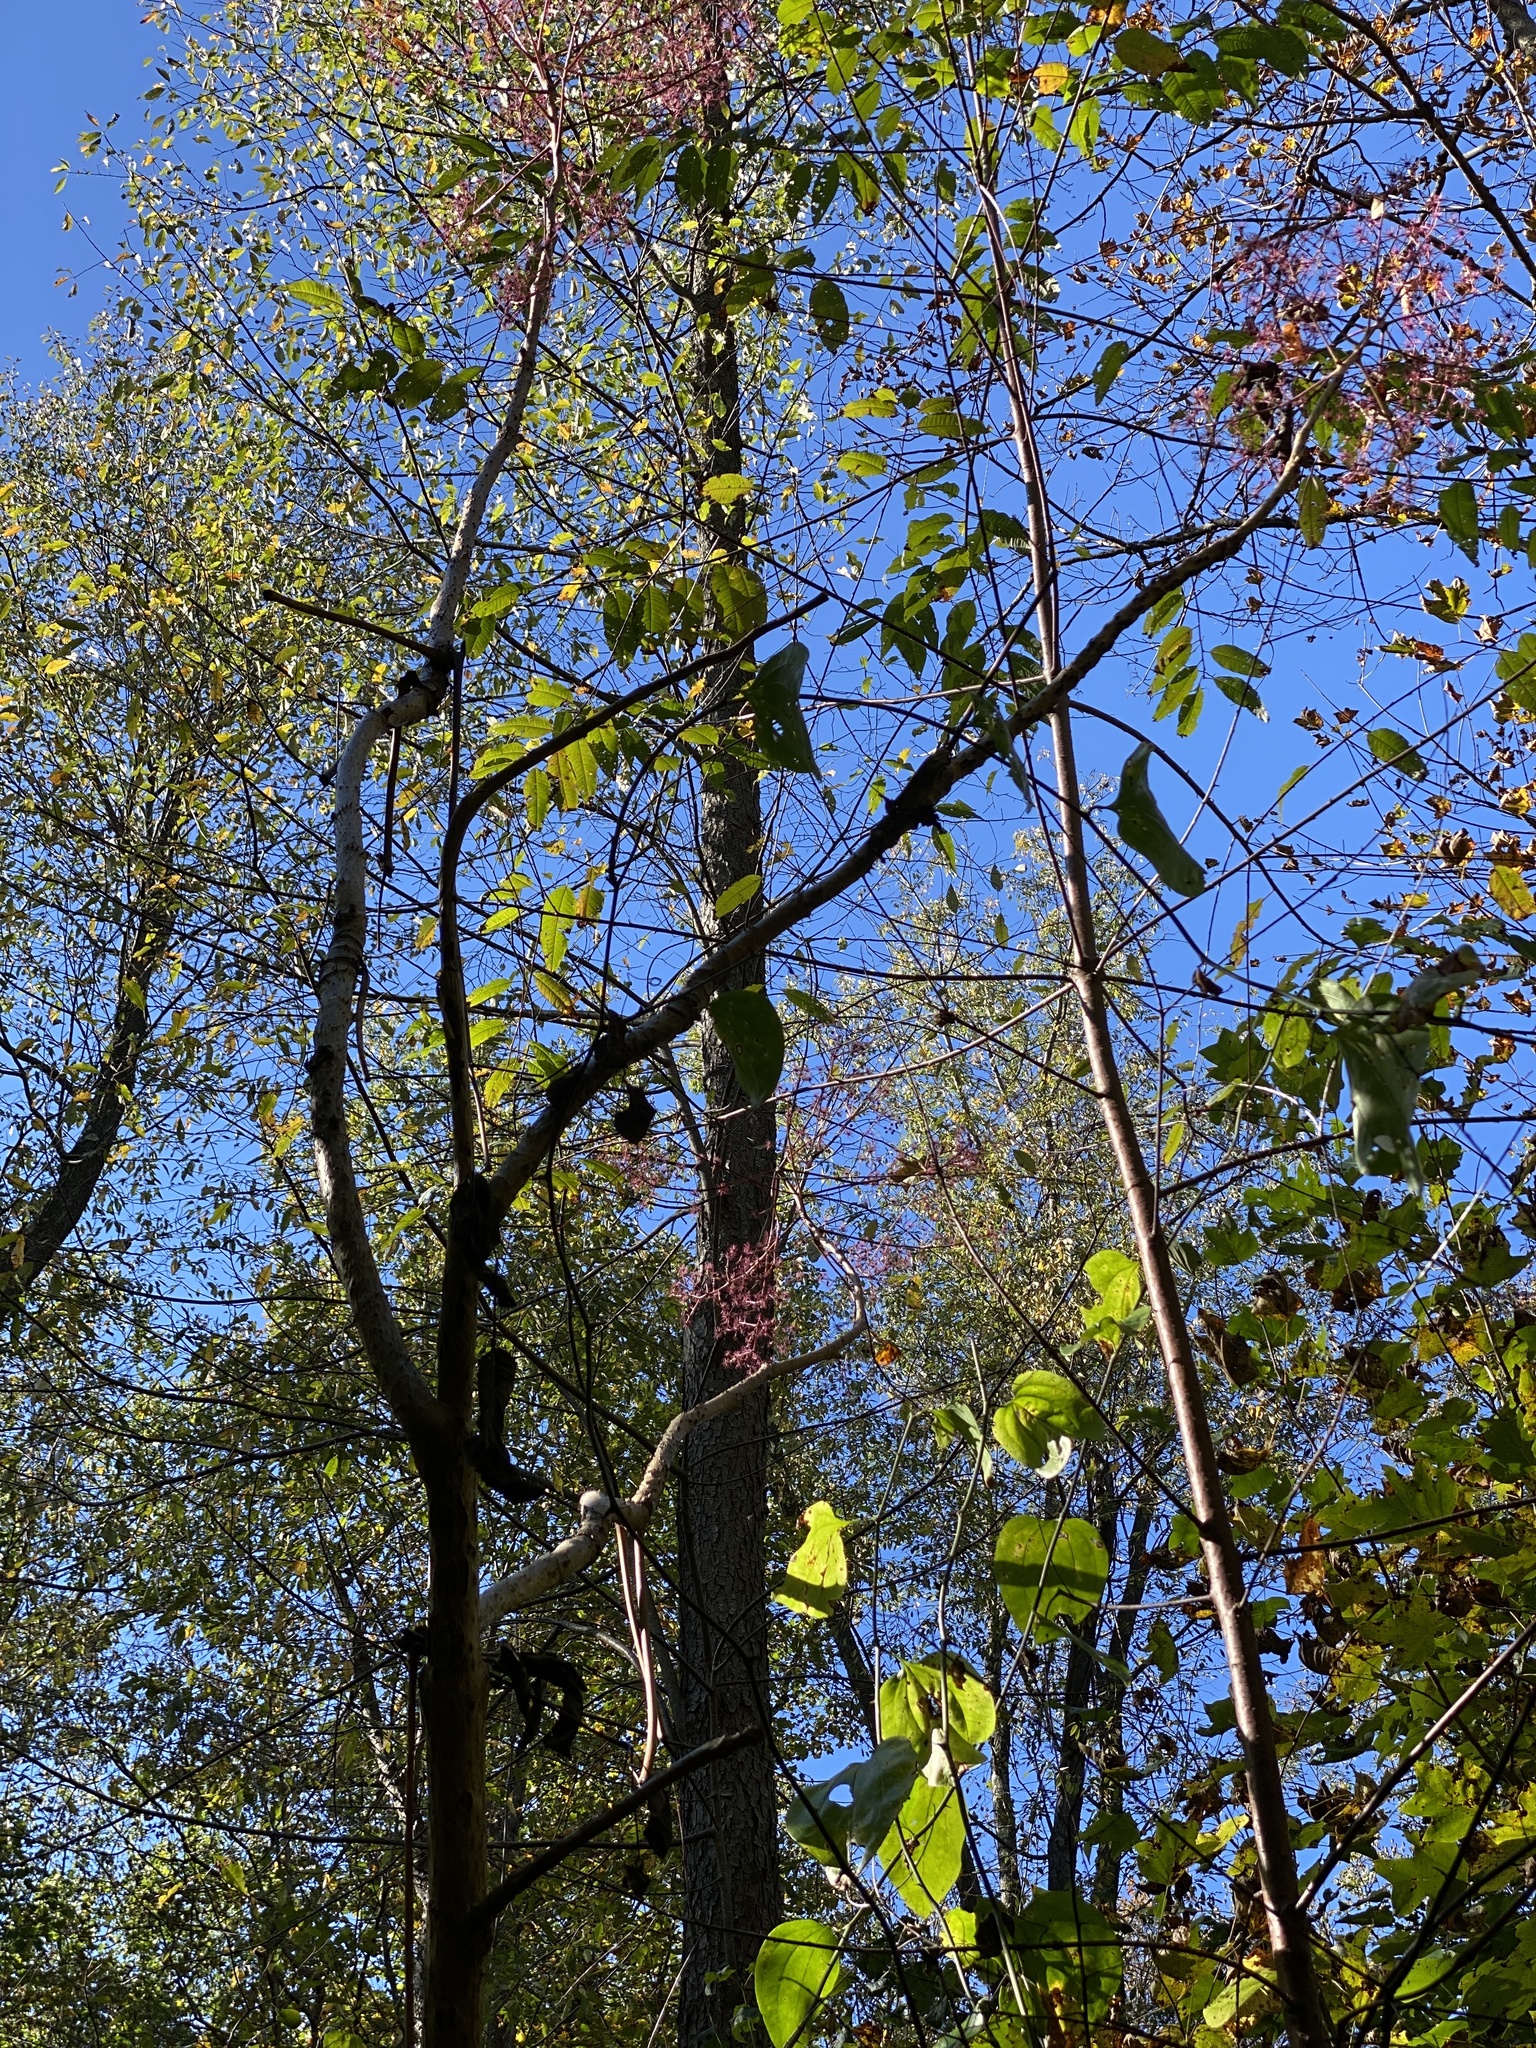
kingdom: Plantae
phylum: Tracheophyta
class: Magnoliopsida
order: Apiales
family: Araliaceae
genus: Aralia
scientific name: Aralia spinosa
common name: Hercules'-club
